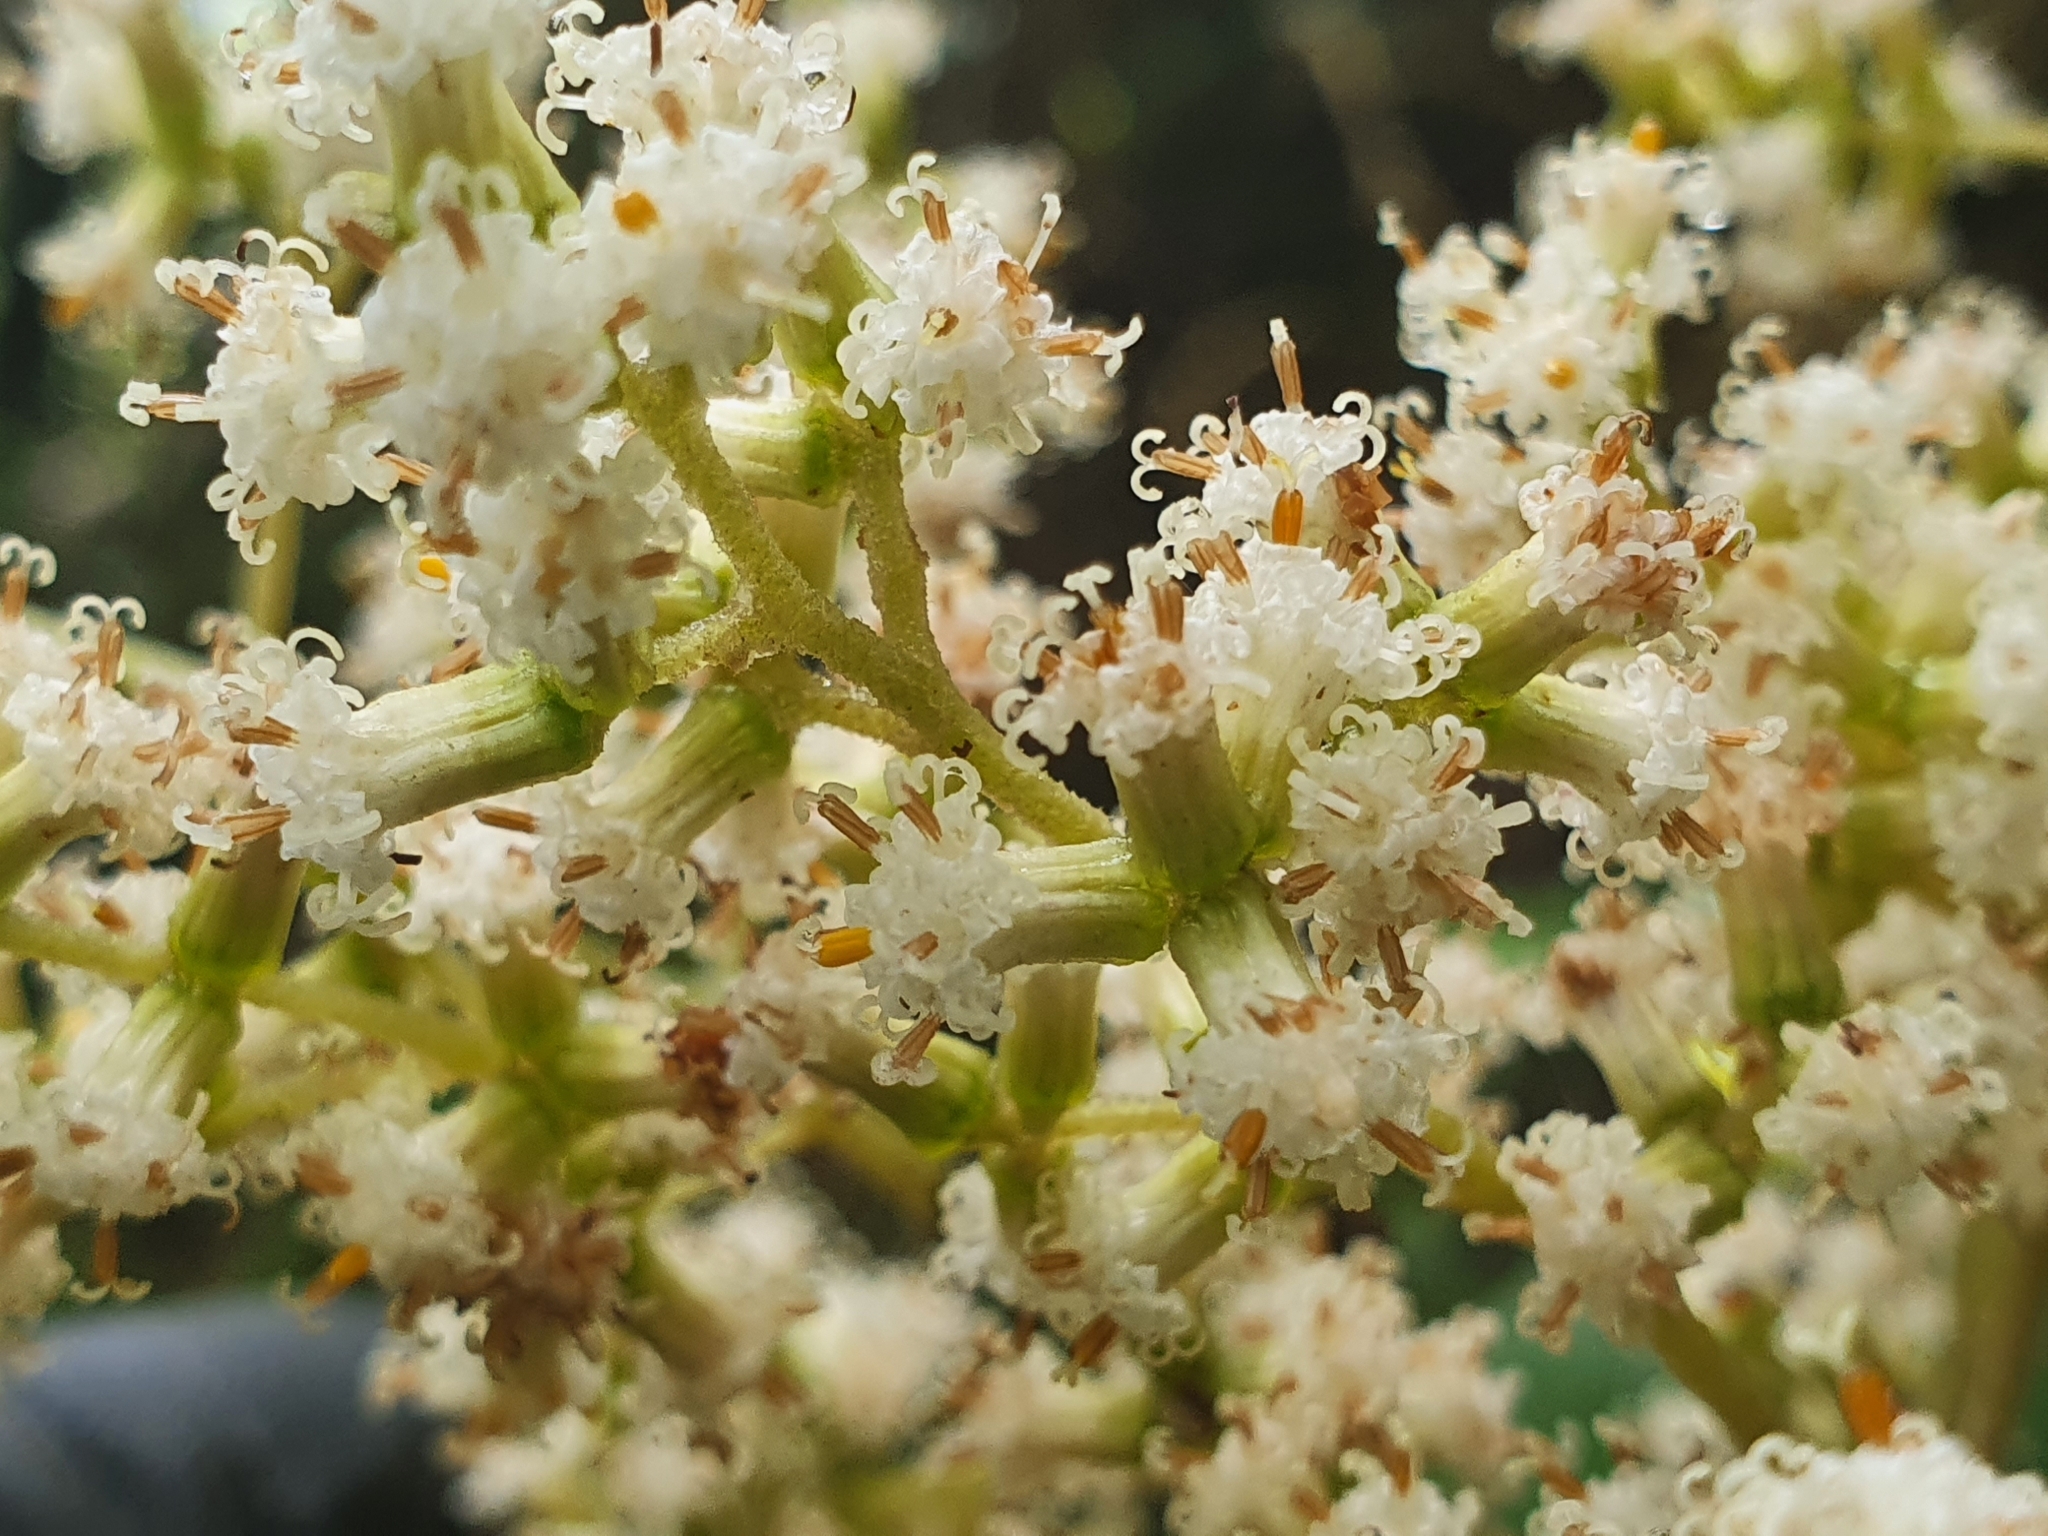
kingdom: Plantae
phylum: Tracheophyta
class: Magnoliopsida
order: Asterales
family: Asteraceae
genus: Brachyglottis
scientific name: Brachyglottis repanda
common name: Hedge ragwort
